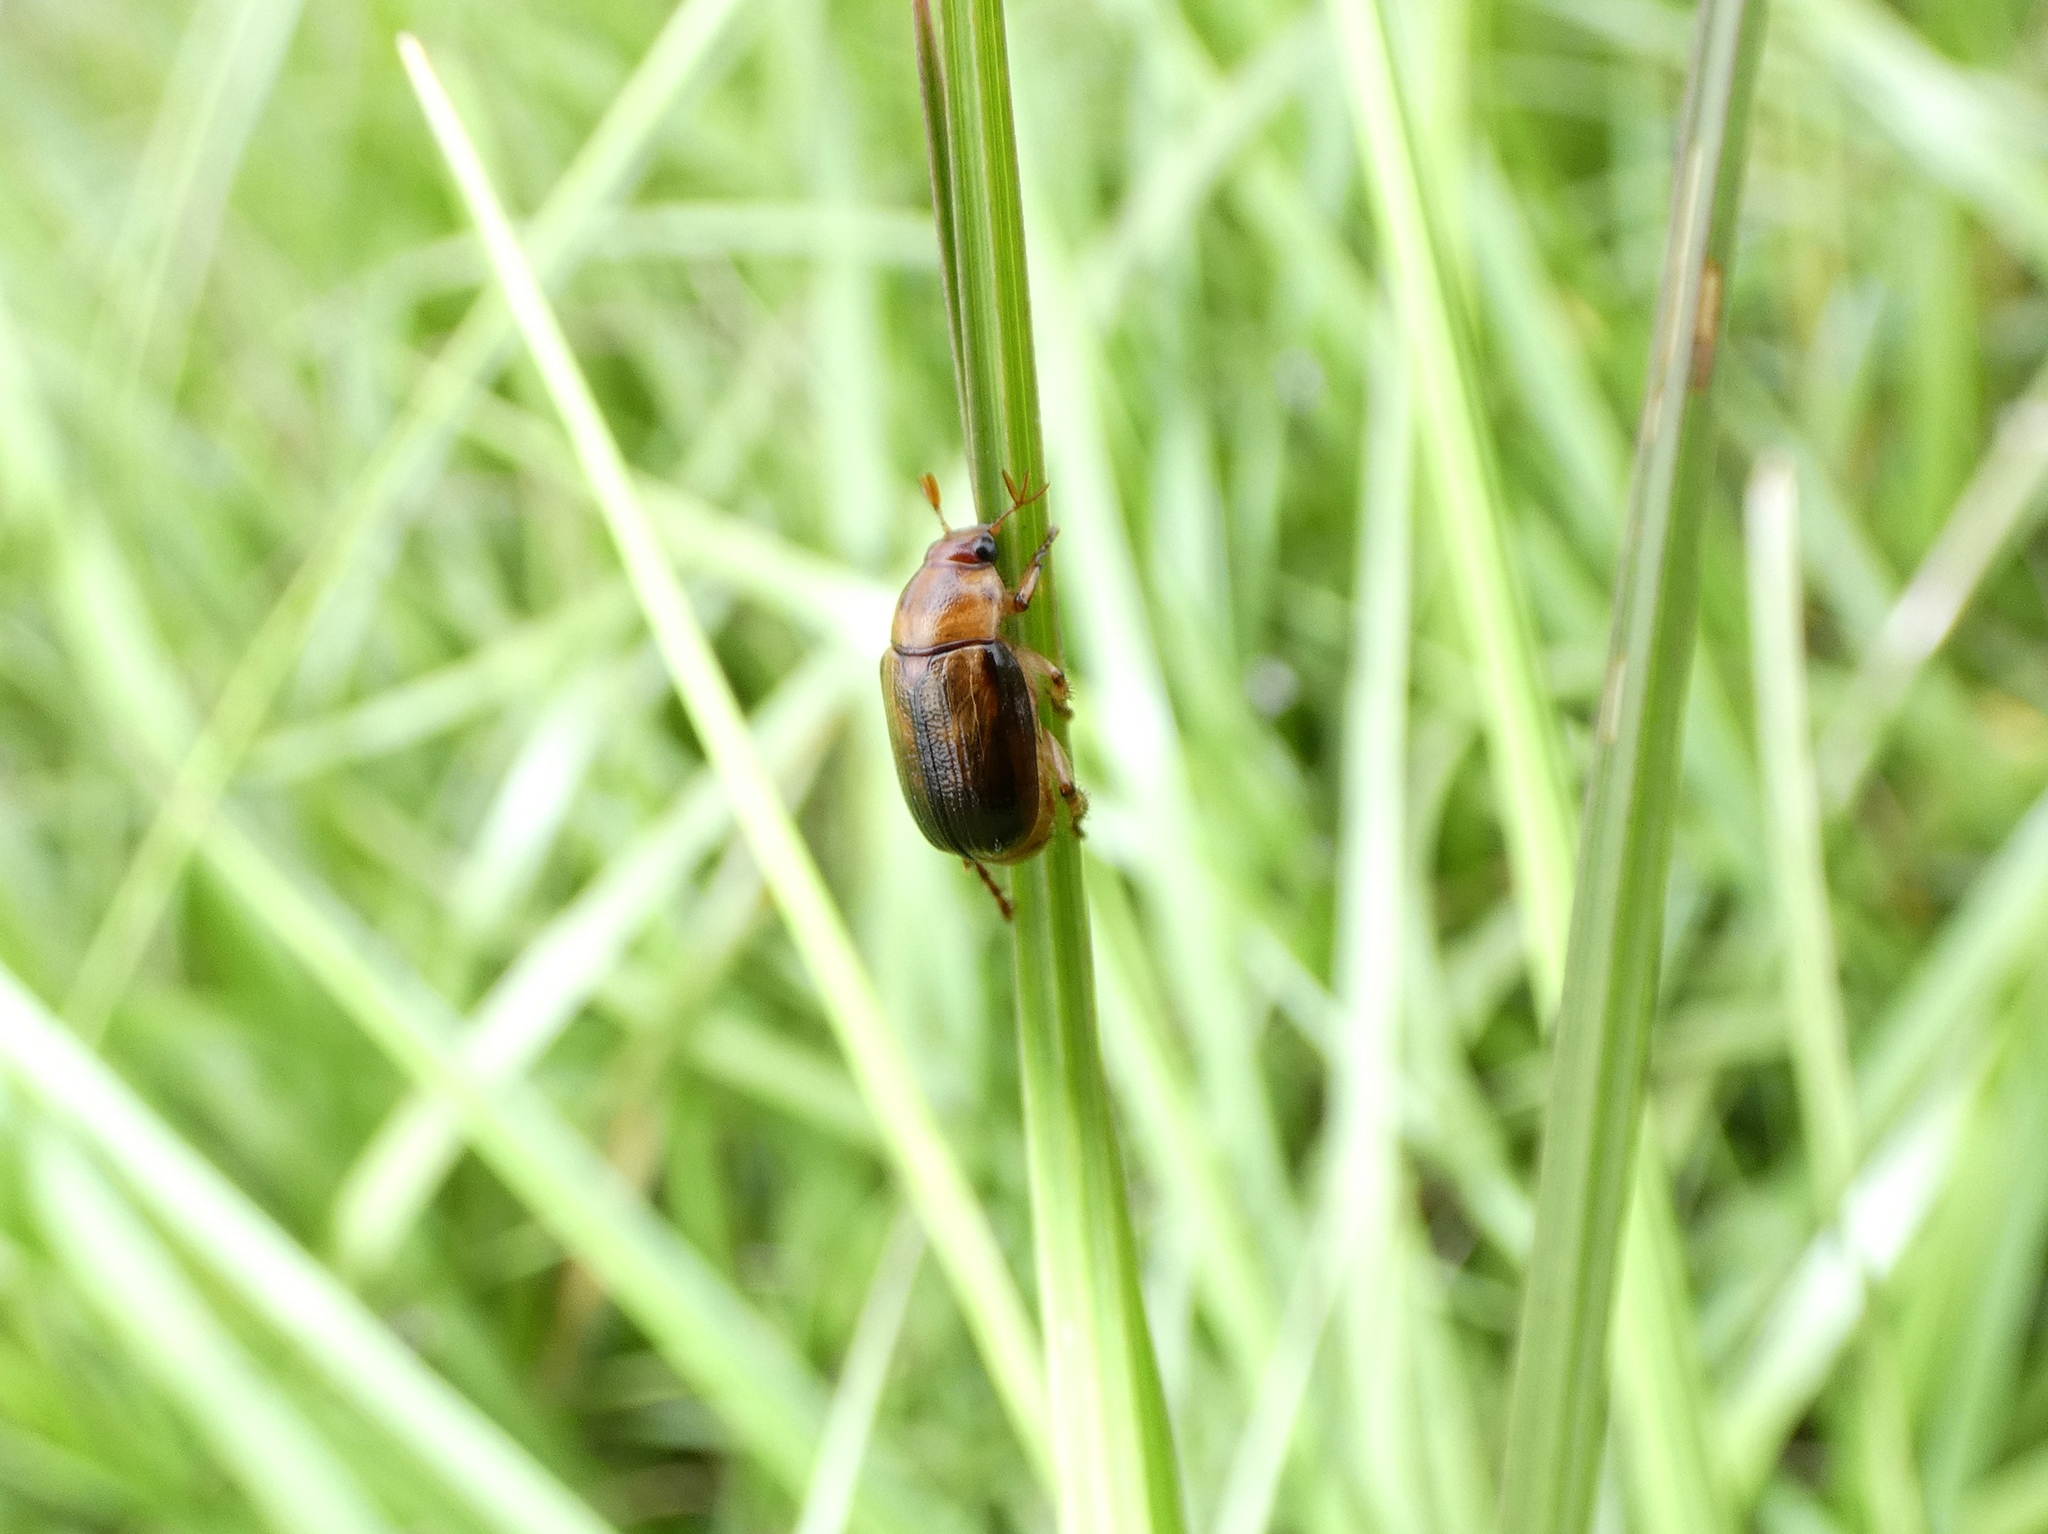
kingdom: Animalia
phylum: Arthropoda
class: Insecta
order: Coleoptera
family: Scarabaeidae
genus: Callistethus
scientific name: Callistethus marginatus
